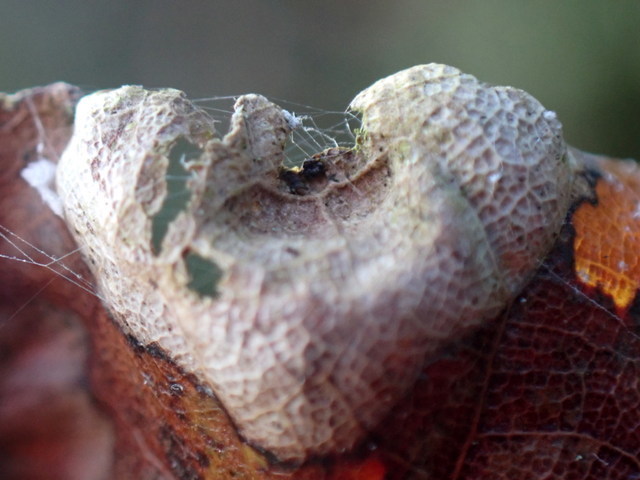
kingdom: Fungi
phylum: Ascomycota
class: Taphrinomycetes
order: Taphrinales
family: Taphrinaceae
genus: Taphrina
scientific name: Taphrina caerulescens
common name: Oak leaf blister
